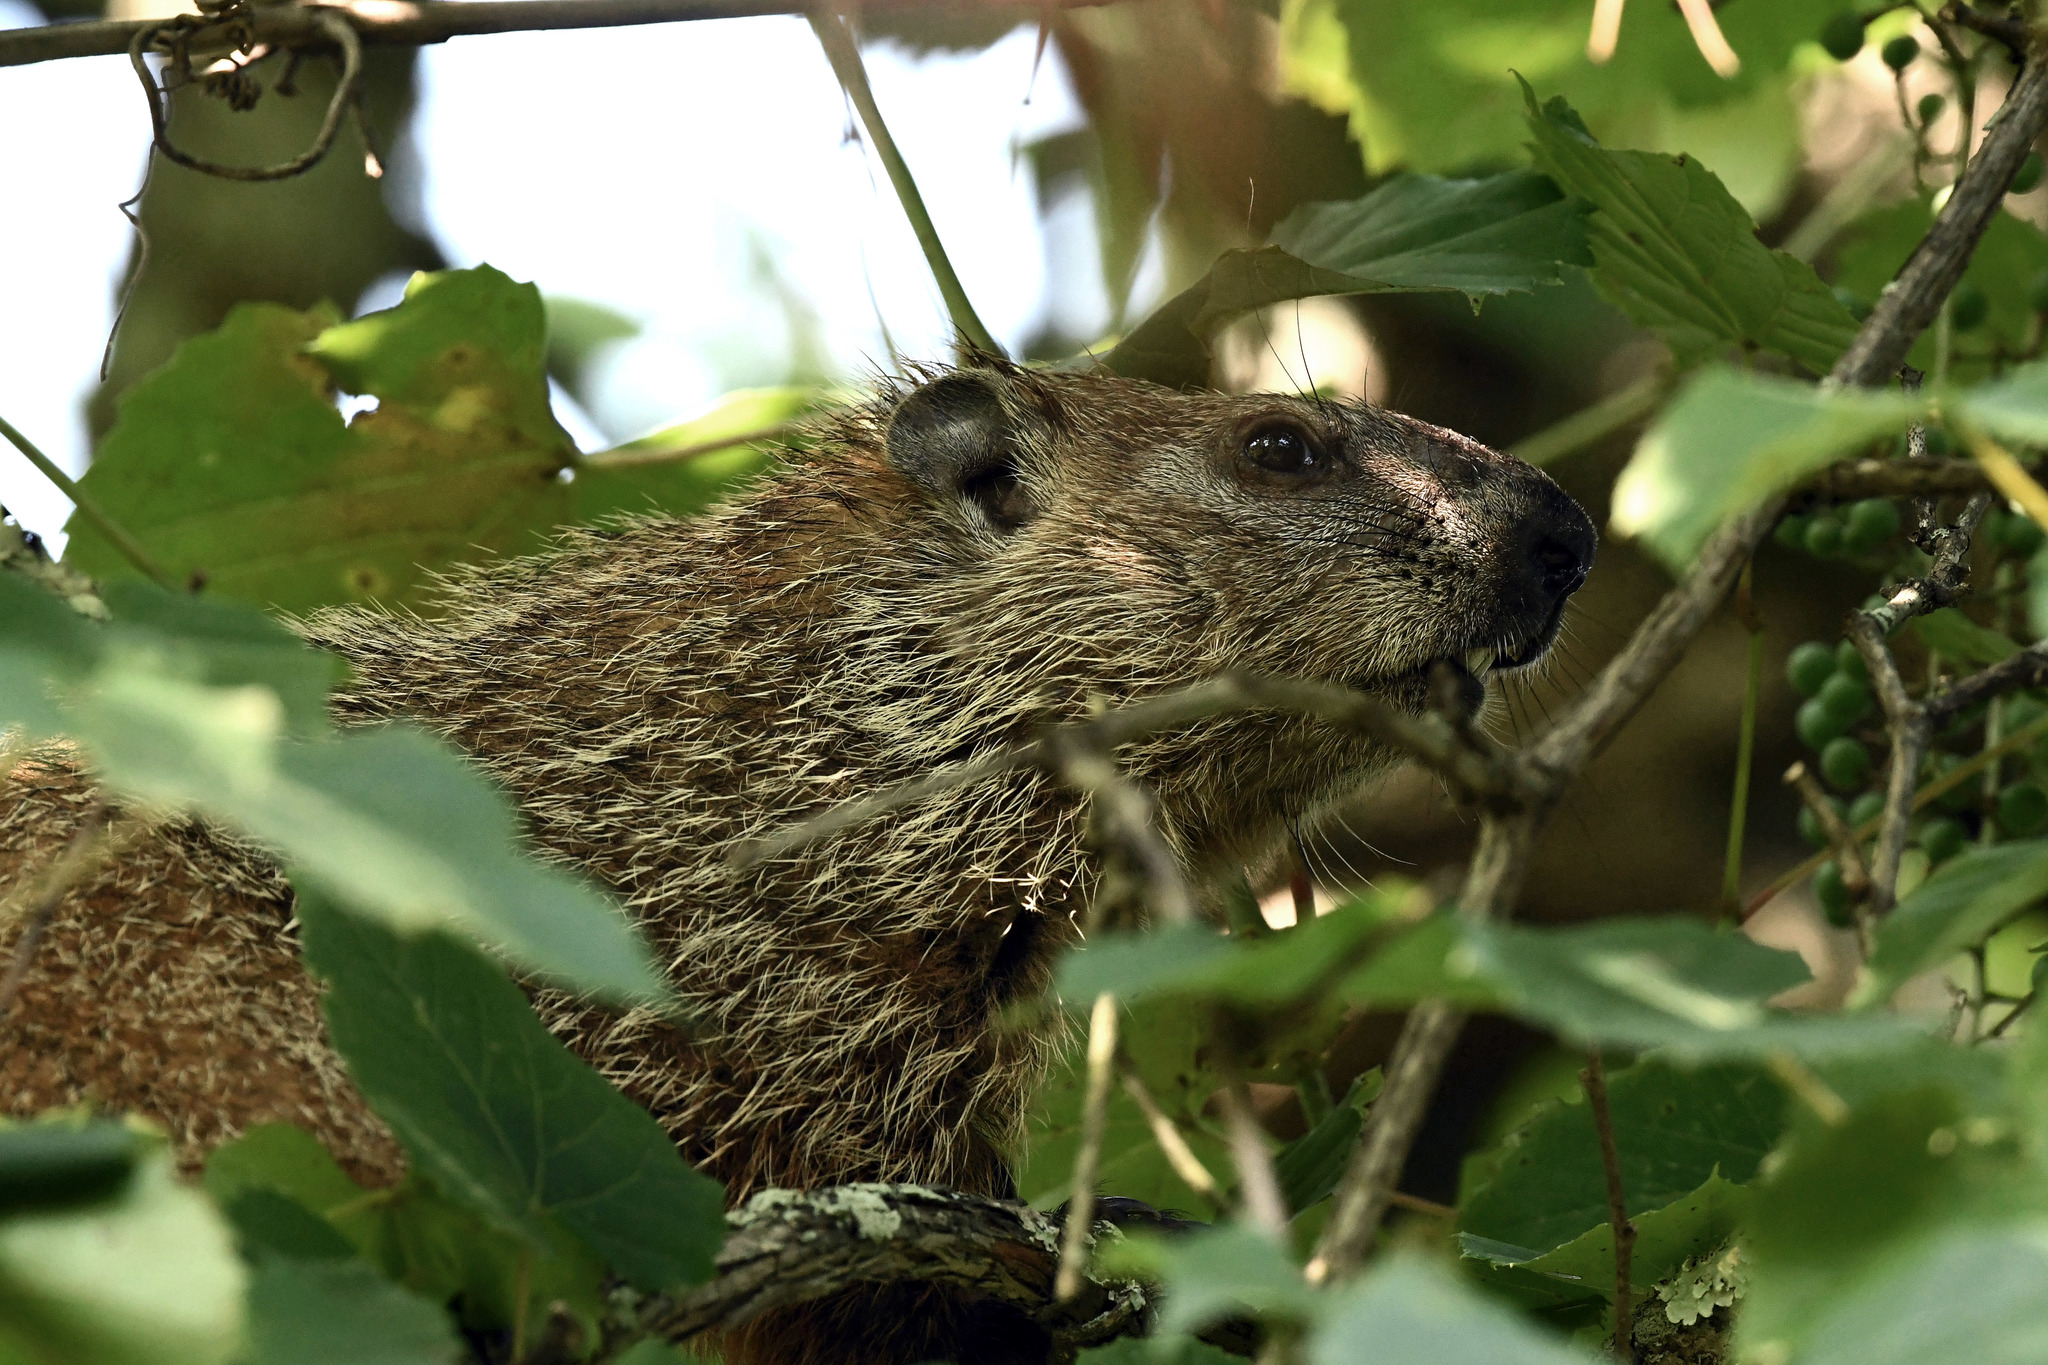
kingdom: Animalia
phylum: Chordata
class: Mammalia
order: Rodentia
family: Sciuridae
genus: Marmota
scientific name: Marmota monax
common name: Groundhog
